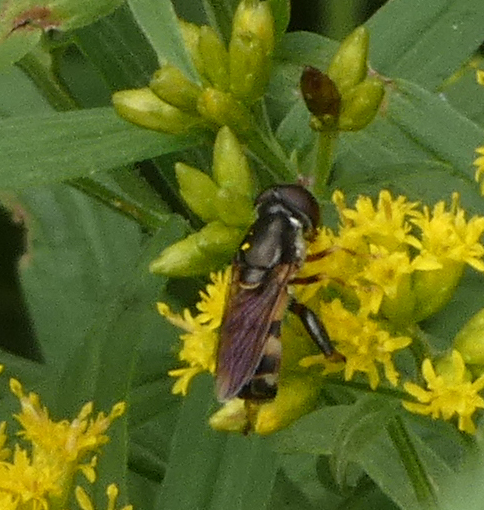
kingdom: Animalia
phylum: Arthropoda
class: Insecta
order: Diptera
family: Syrphidae
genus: Tropidia
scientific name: Tropidia albistylum
